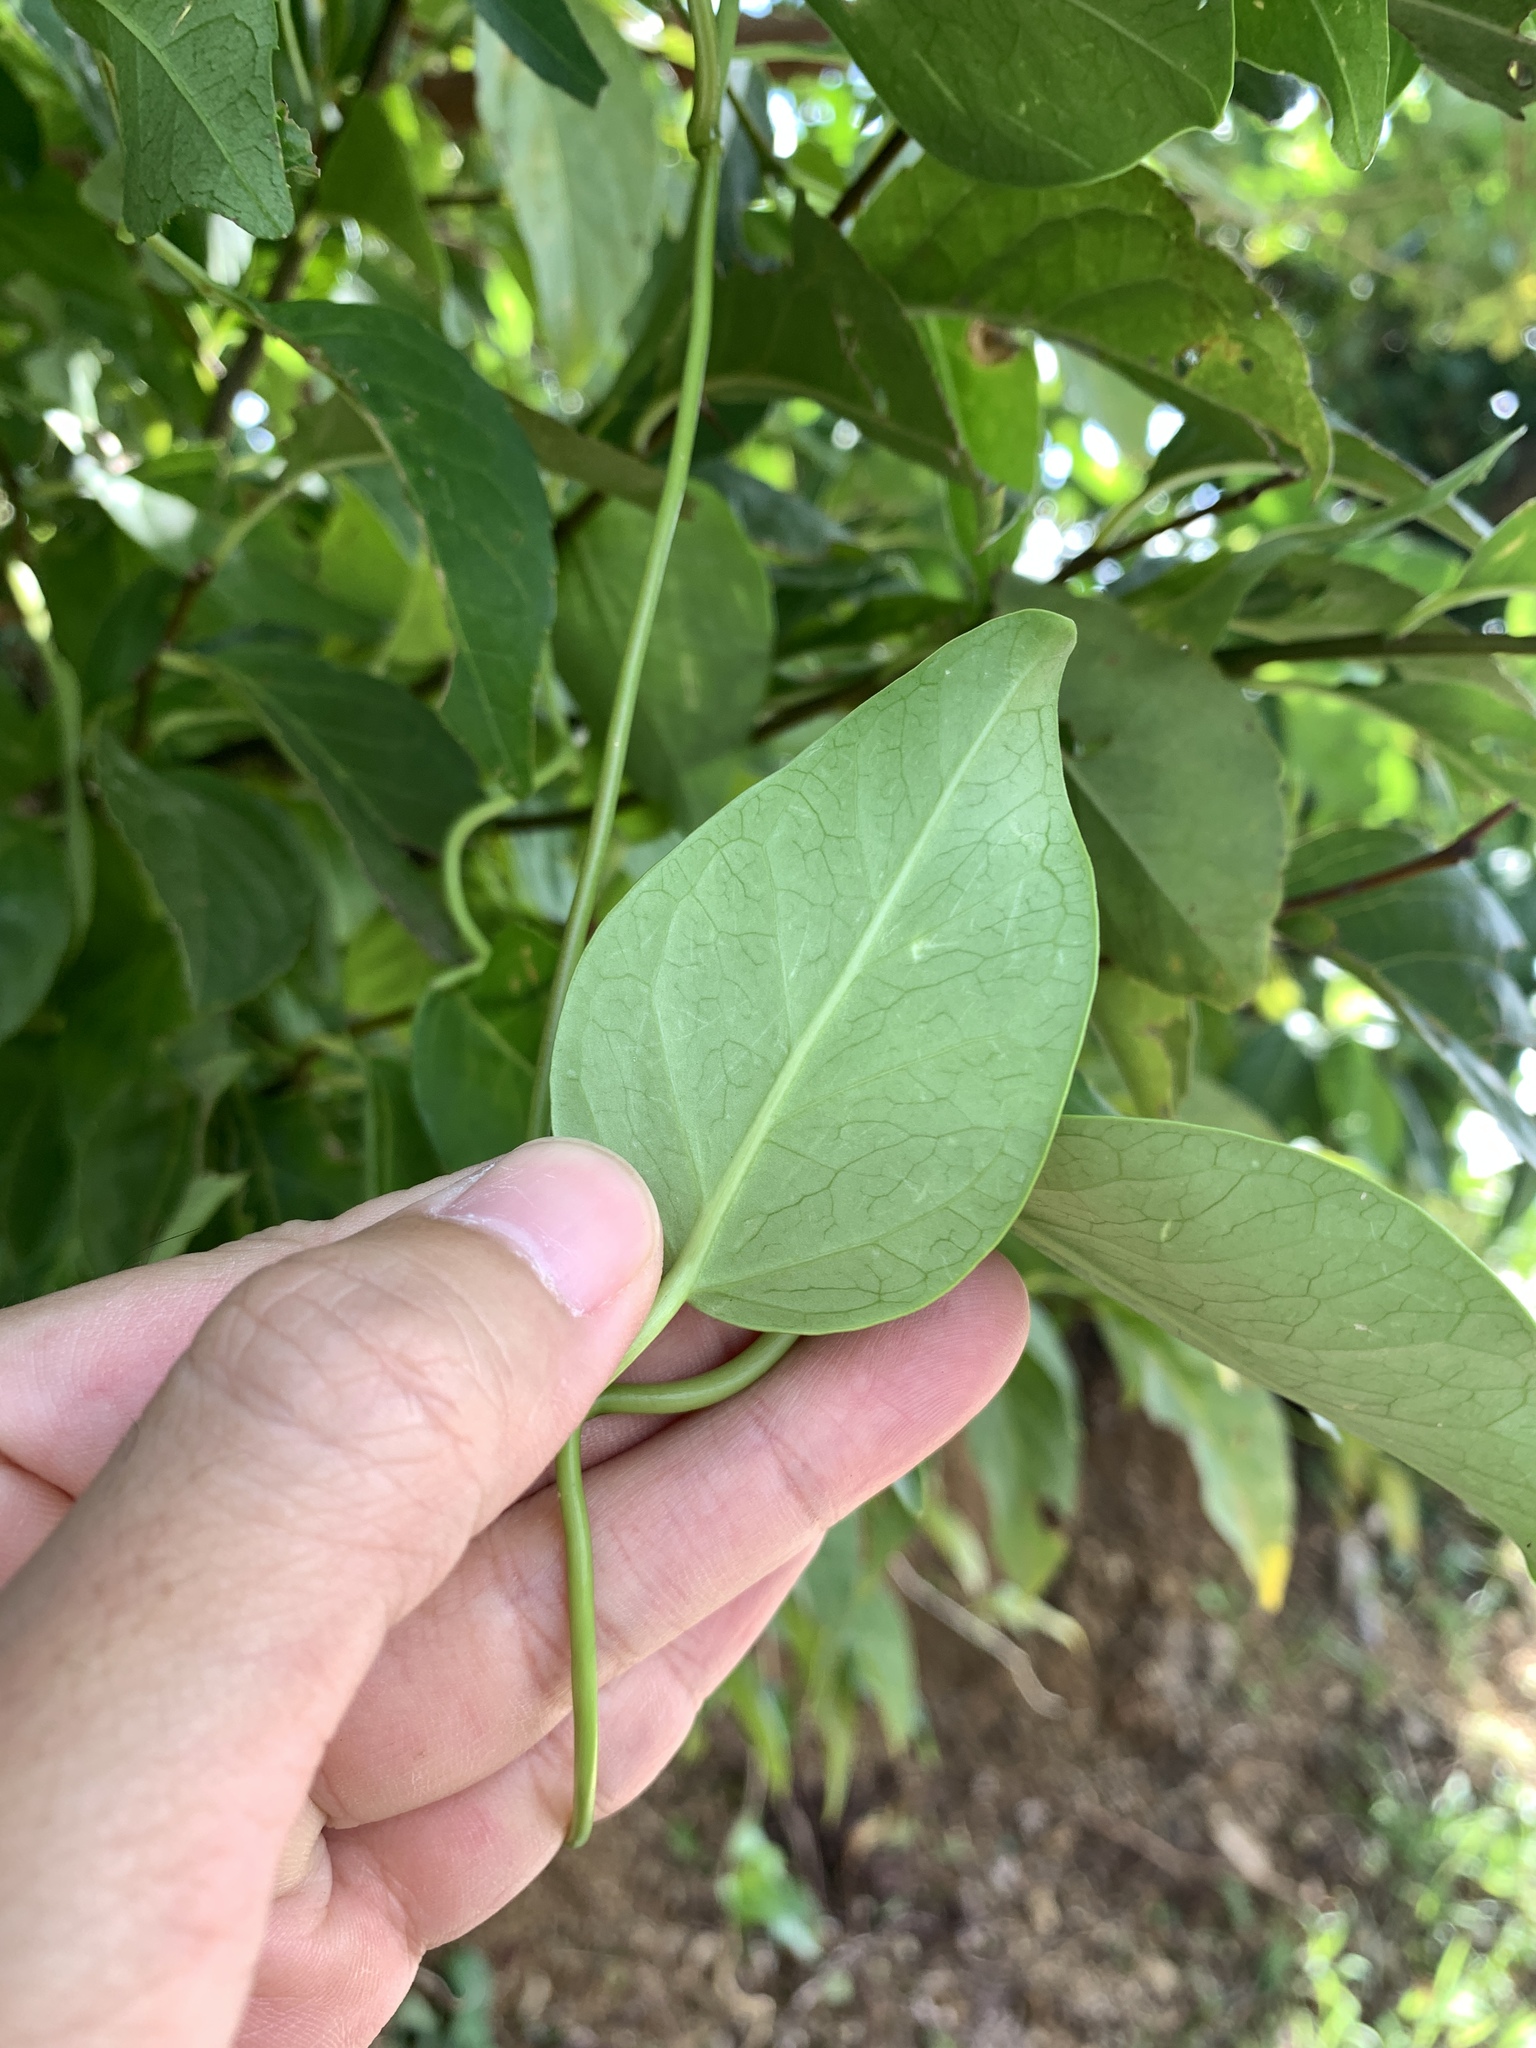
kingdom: Plantae
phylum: Tracheophyta
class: Magnoliopsida
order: Gentianales
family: Apocynaceae
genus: Cynanchum
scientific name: Cynanchum lanhsuense
